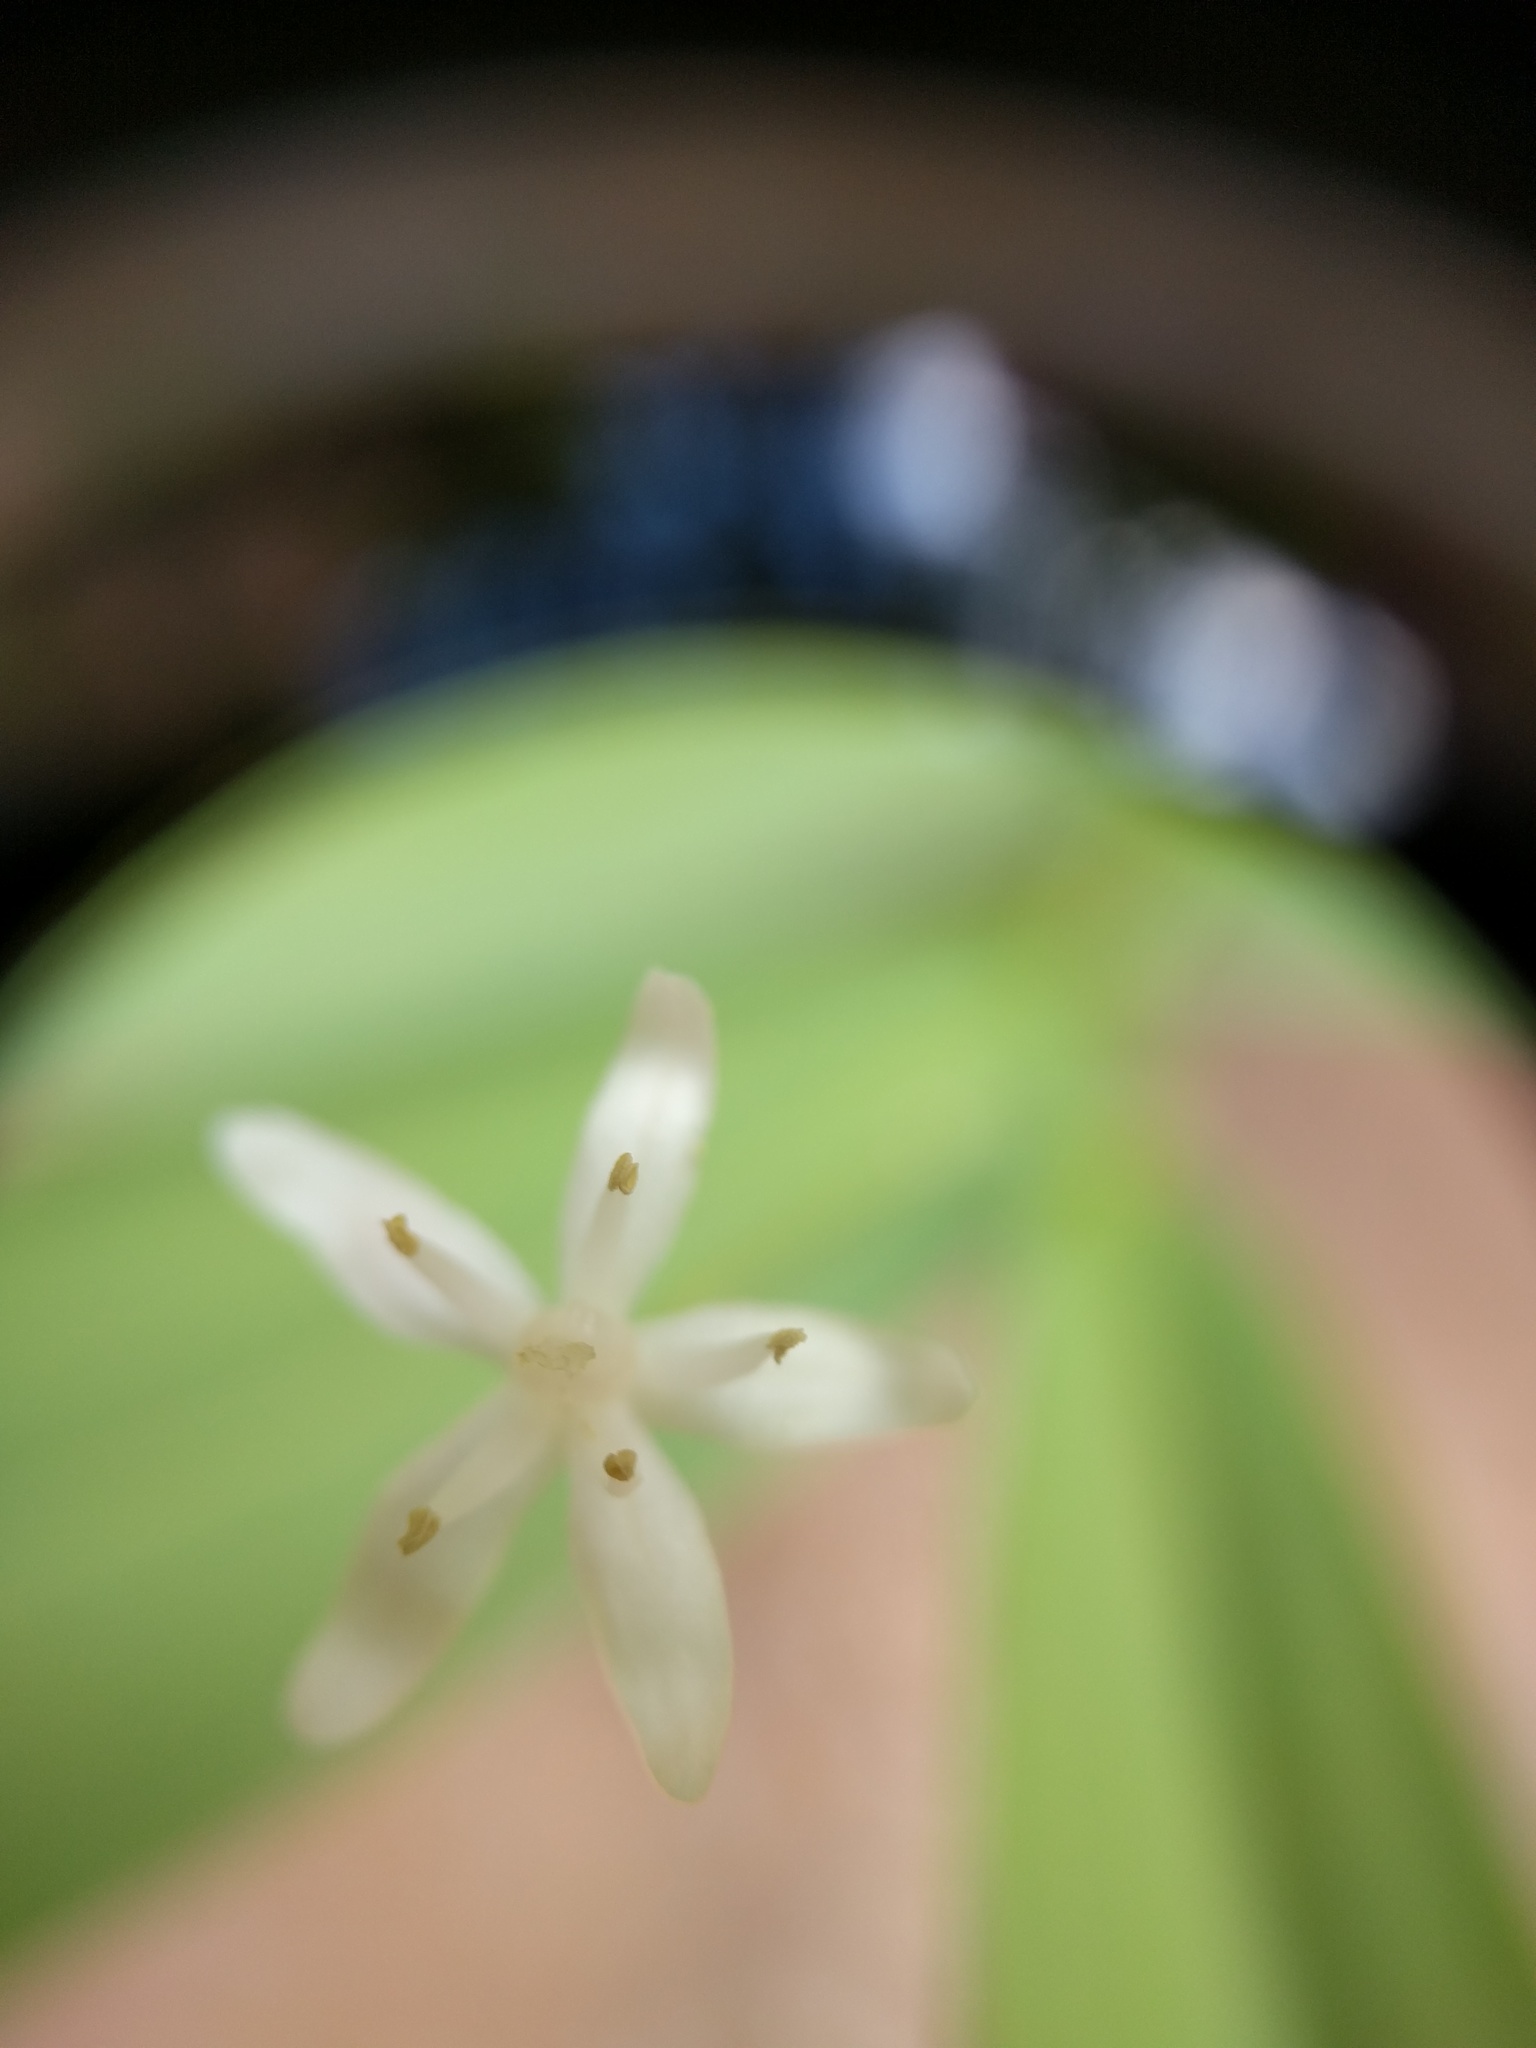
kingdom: Plantae
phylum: Tracheophyta
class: Liliopsida
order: Asparagales
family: Asparagaceae
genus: Maianthemum
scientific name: Maianthemum stellatum
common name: Little false solomon's seal
